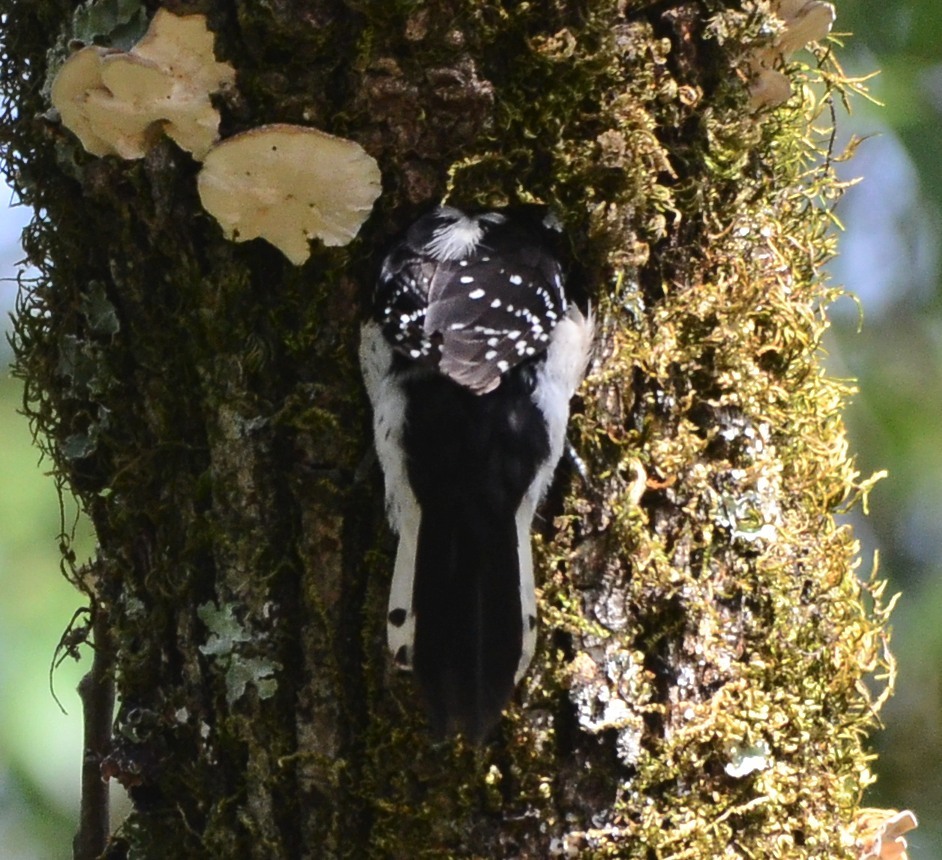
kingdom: Animalia
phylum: Chordata
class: Aves
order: Piciformes
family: Picidae
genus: Dryobates
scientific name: Dryobates pubescens
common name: Downy woodpecker
